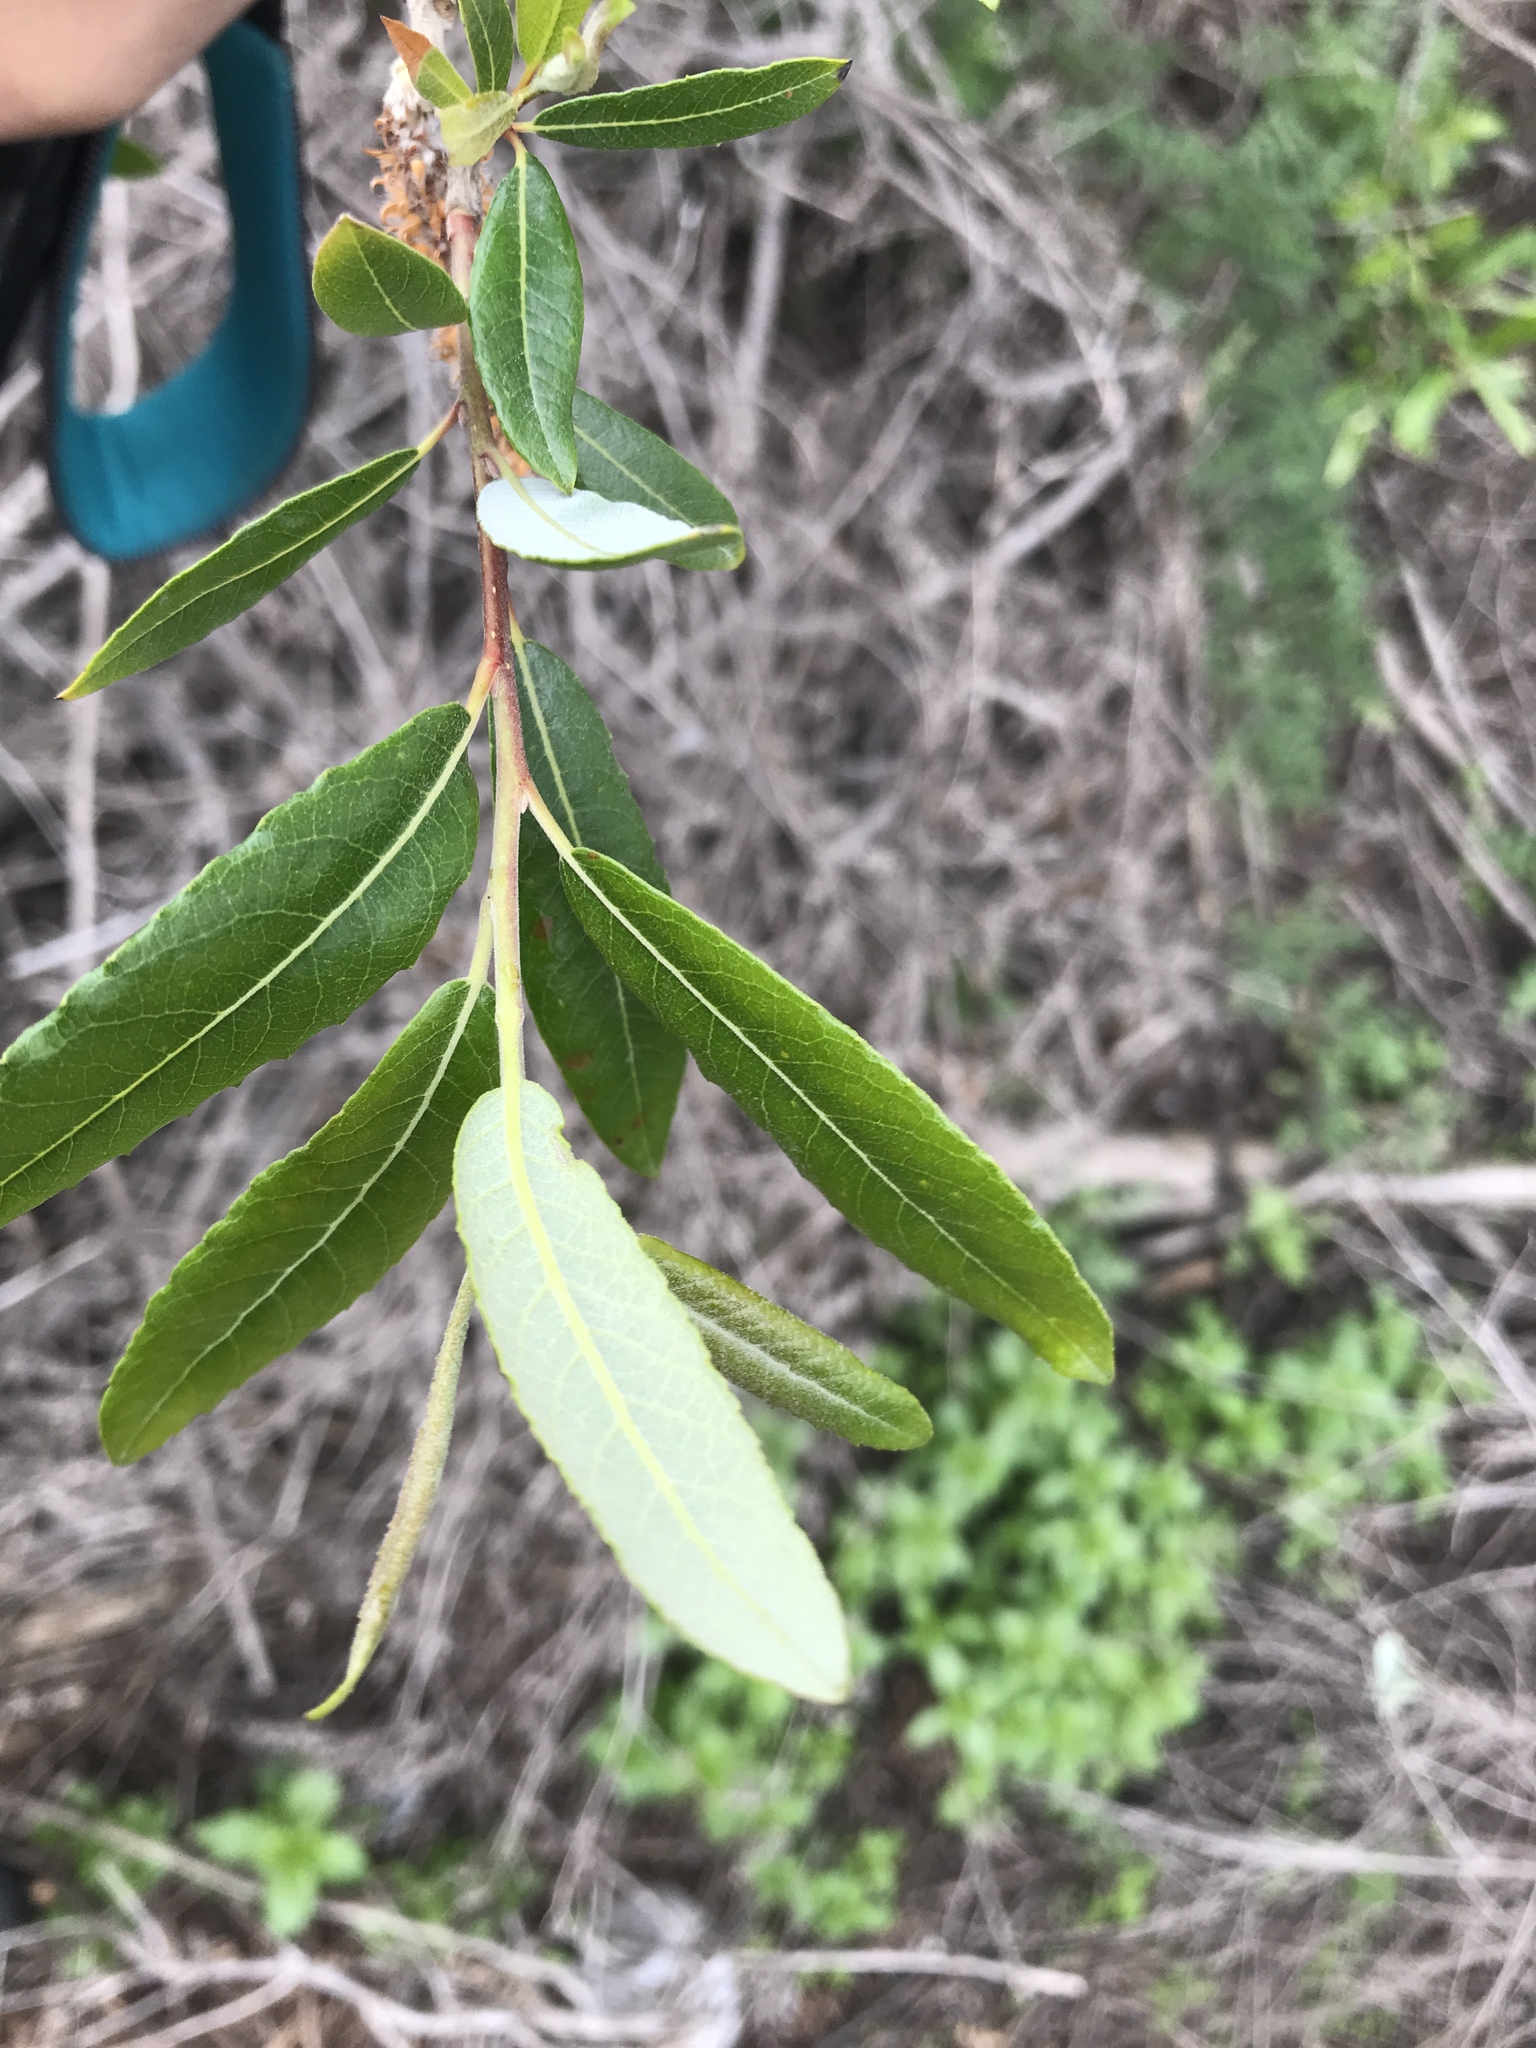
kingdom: Plantae
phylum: Tracheophyta
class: Magnoliopsida
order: Malpighiales
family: Salicaceae
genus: Salix
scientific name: Salix lasiolepis
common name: Arroyo willow
